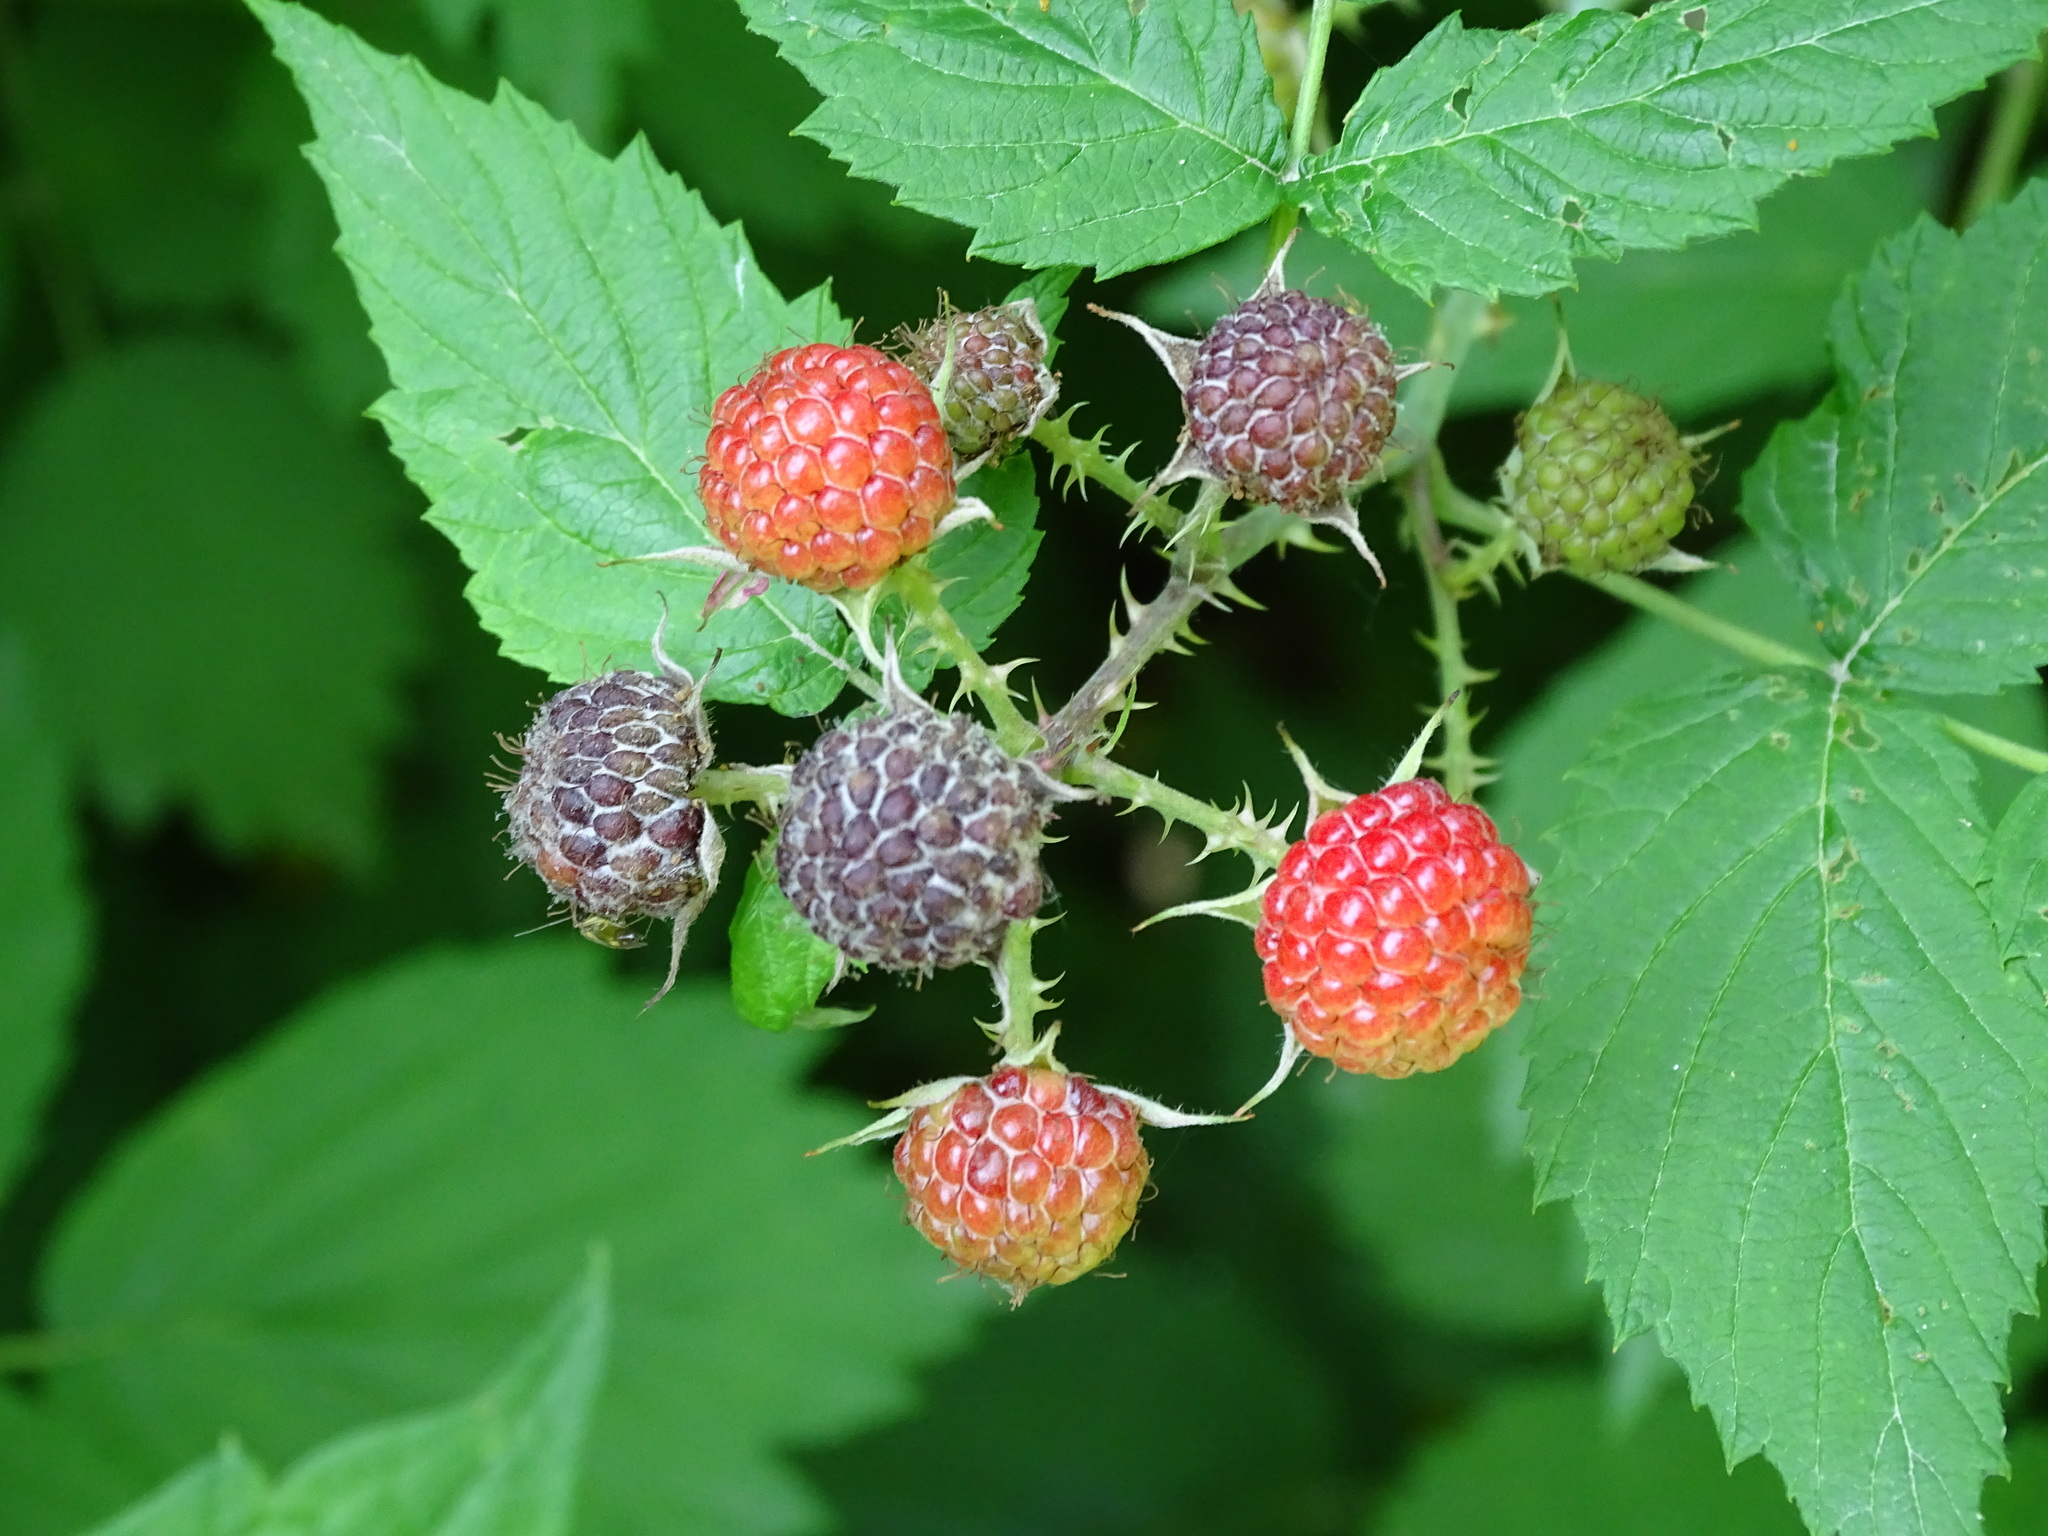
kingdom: Plantae
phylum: Tracheophyta
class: Magnoliopsida
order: Rosales
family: Rosaceae
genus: Rubus
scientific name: Rubus occidentalis
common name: Black raspberry
